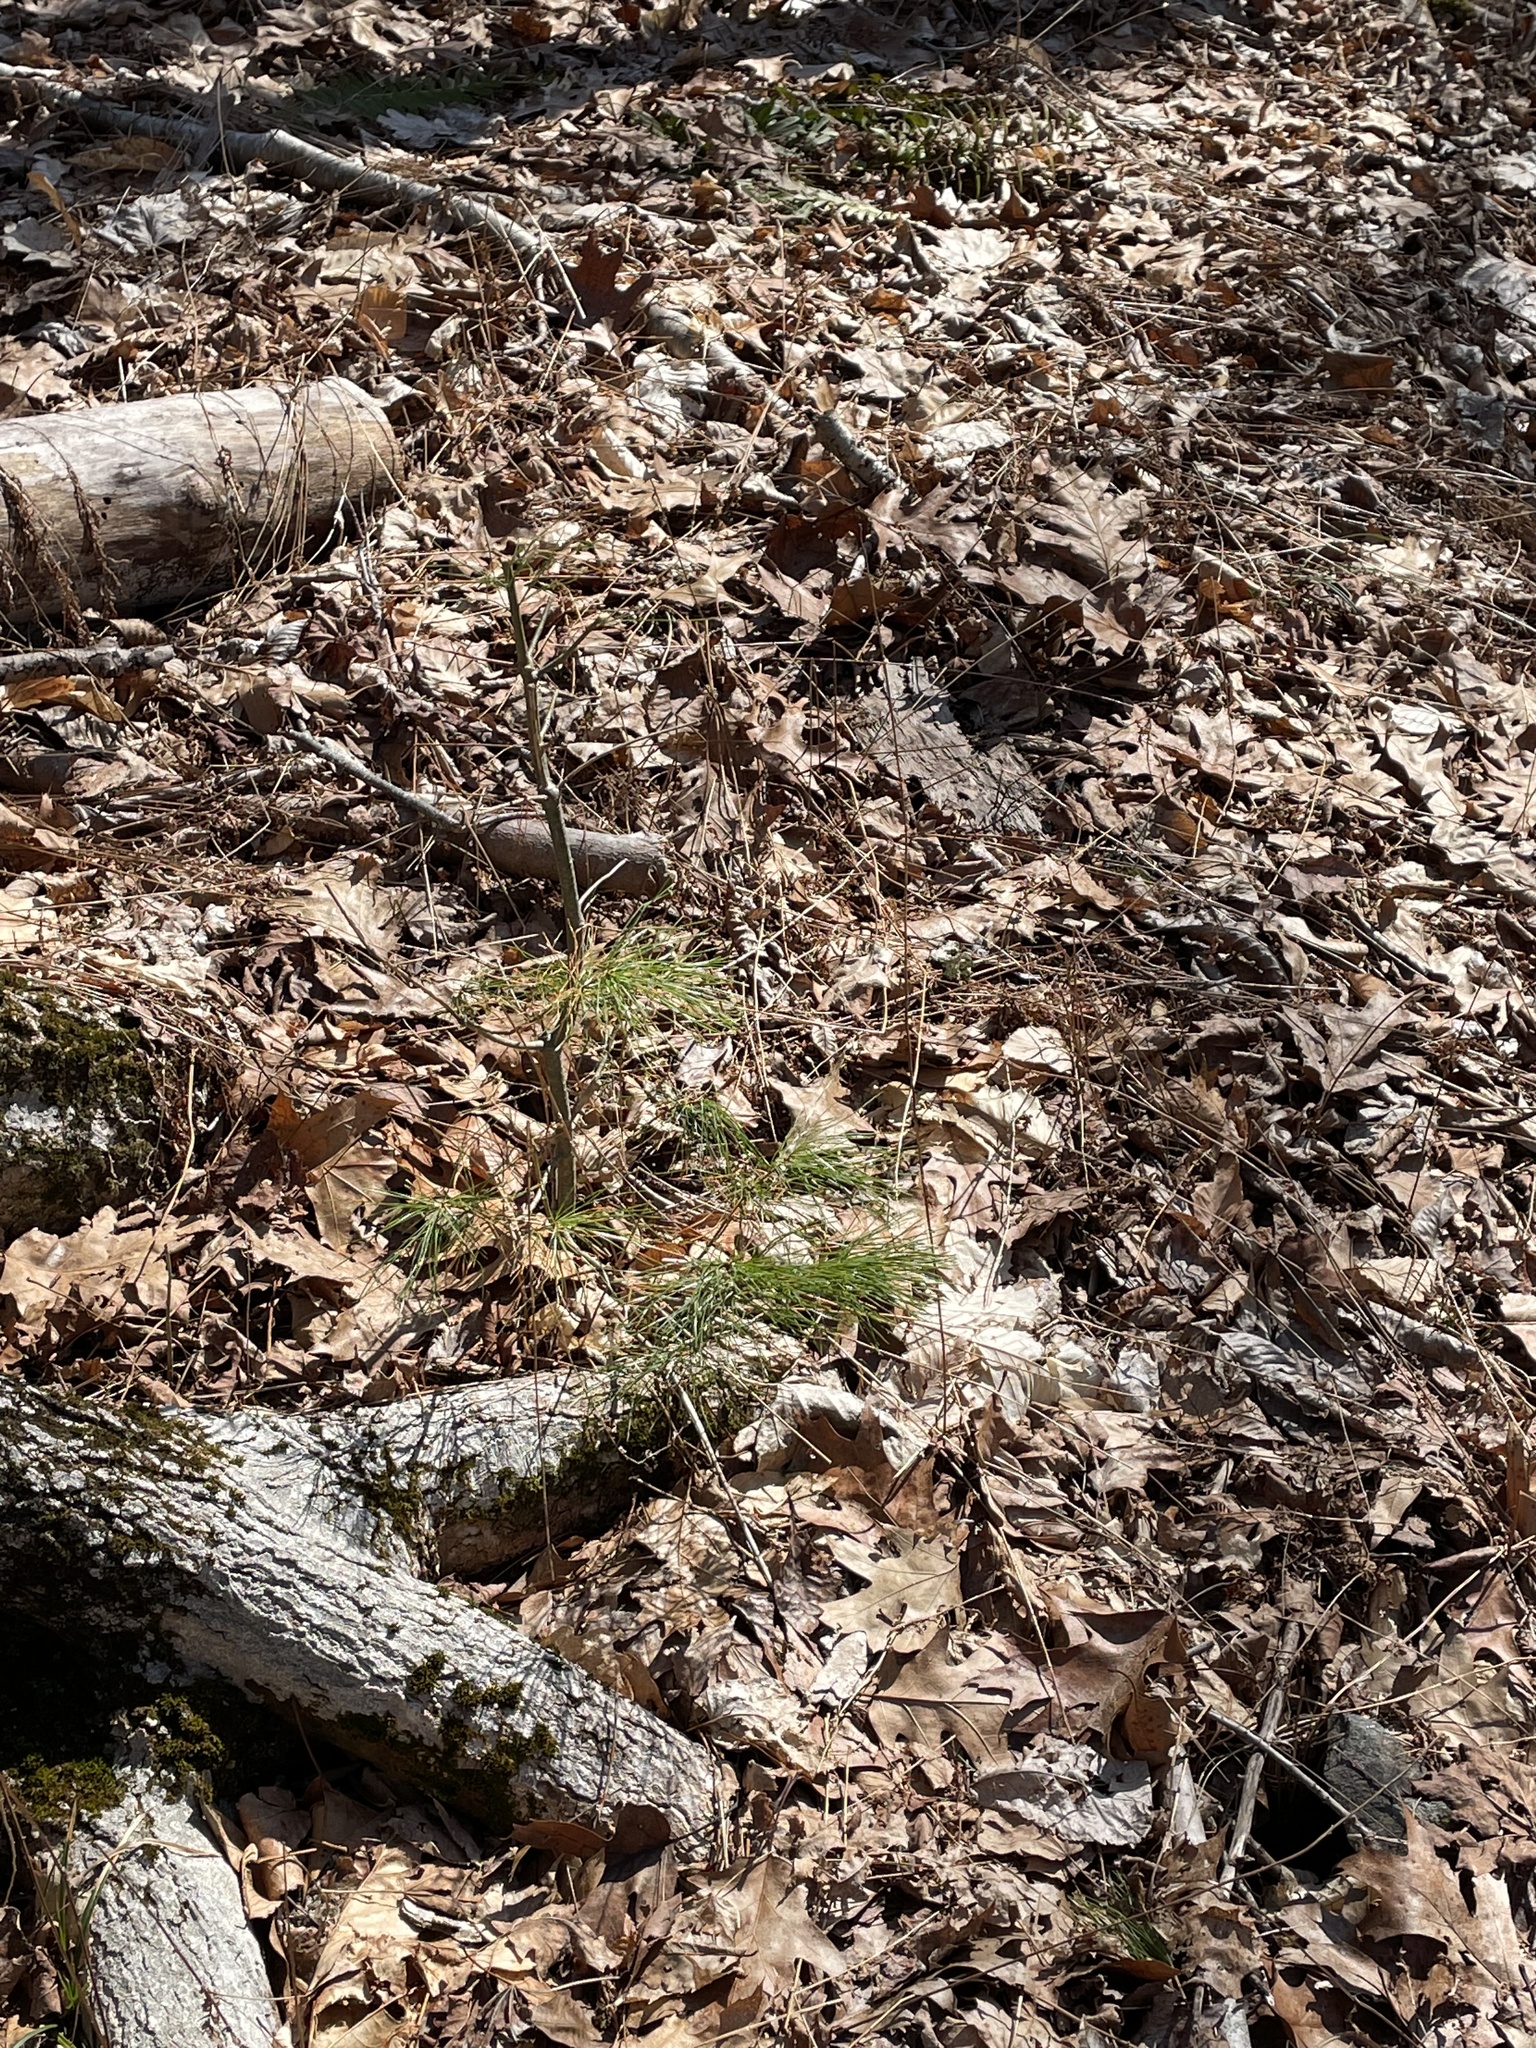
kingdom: Plantae
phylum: Tracheophyta
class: Pinopsida
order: Pinales
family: Pinaceae
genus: Pinus
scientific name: Pinus strobus
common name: Weymouth pine
